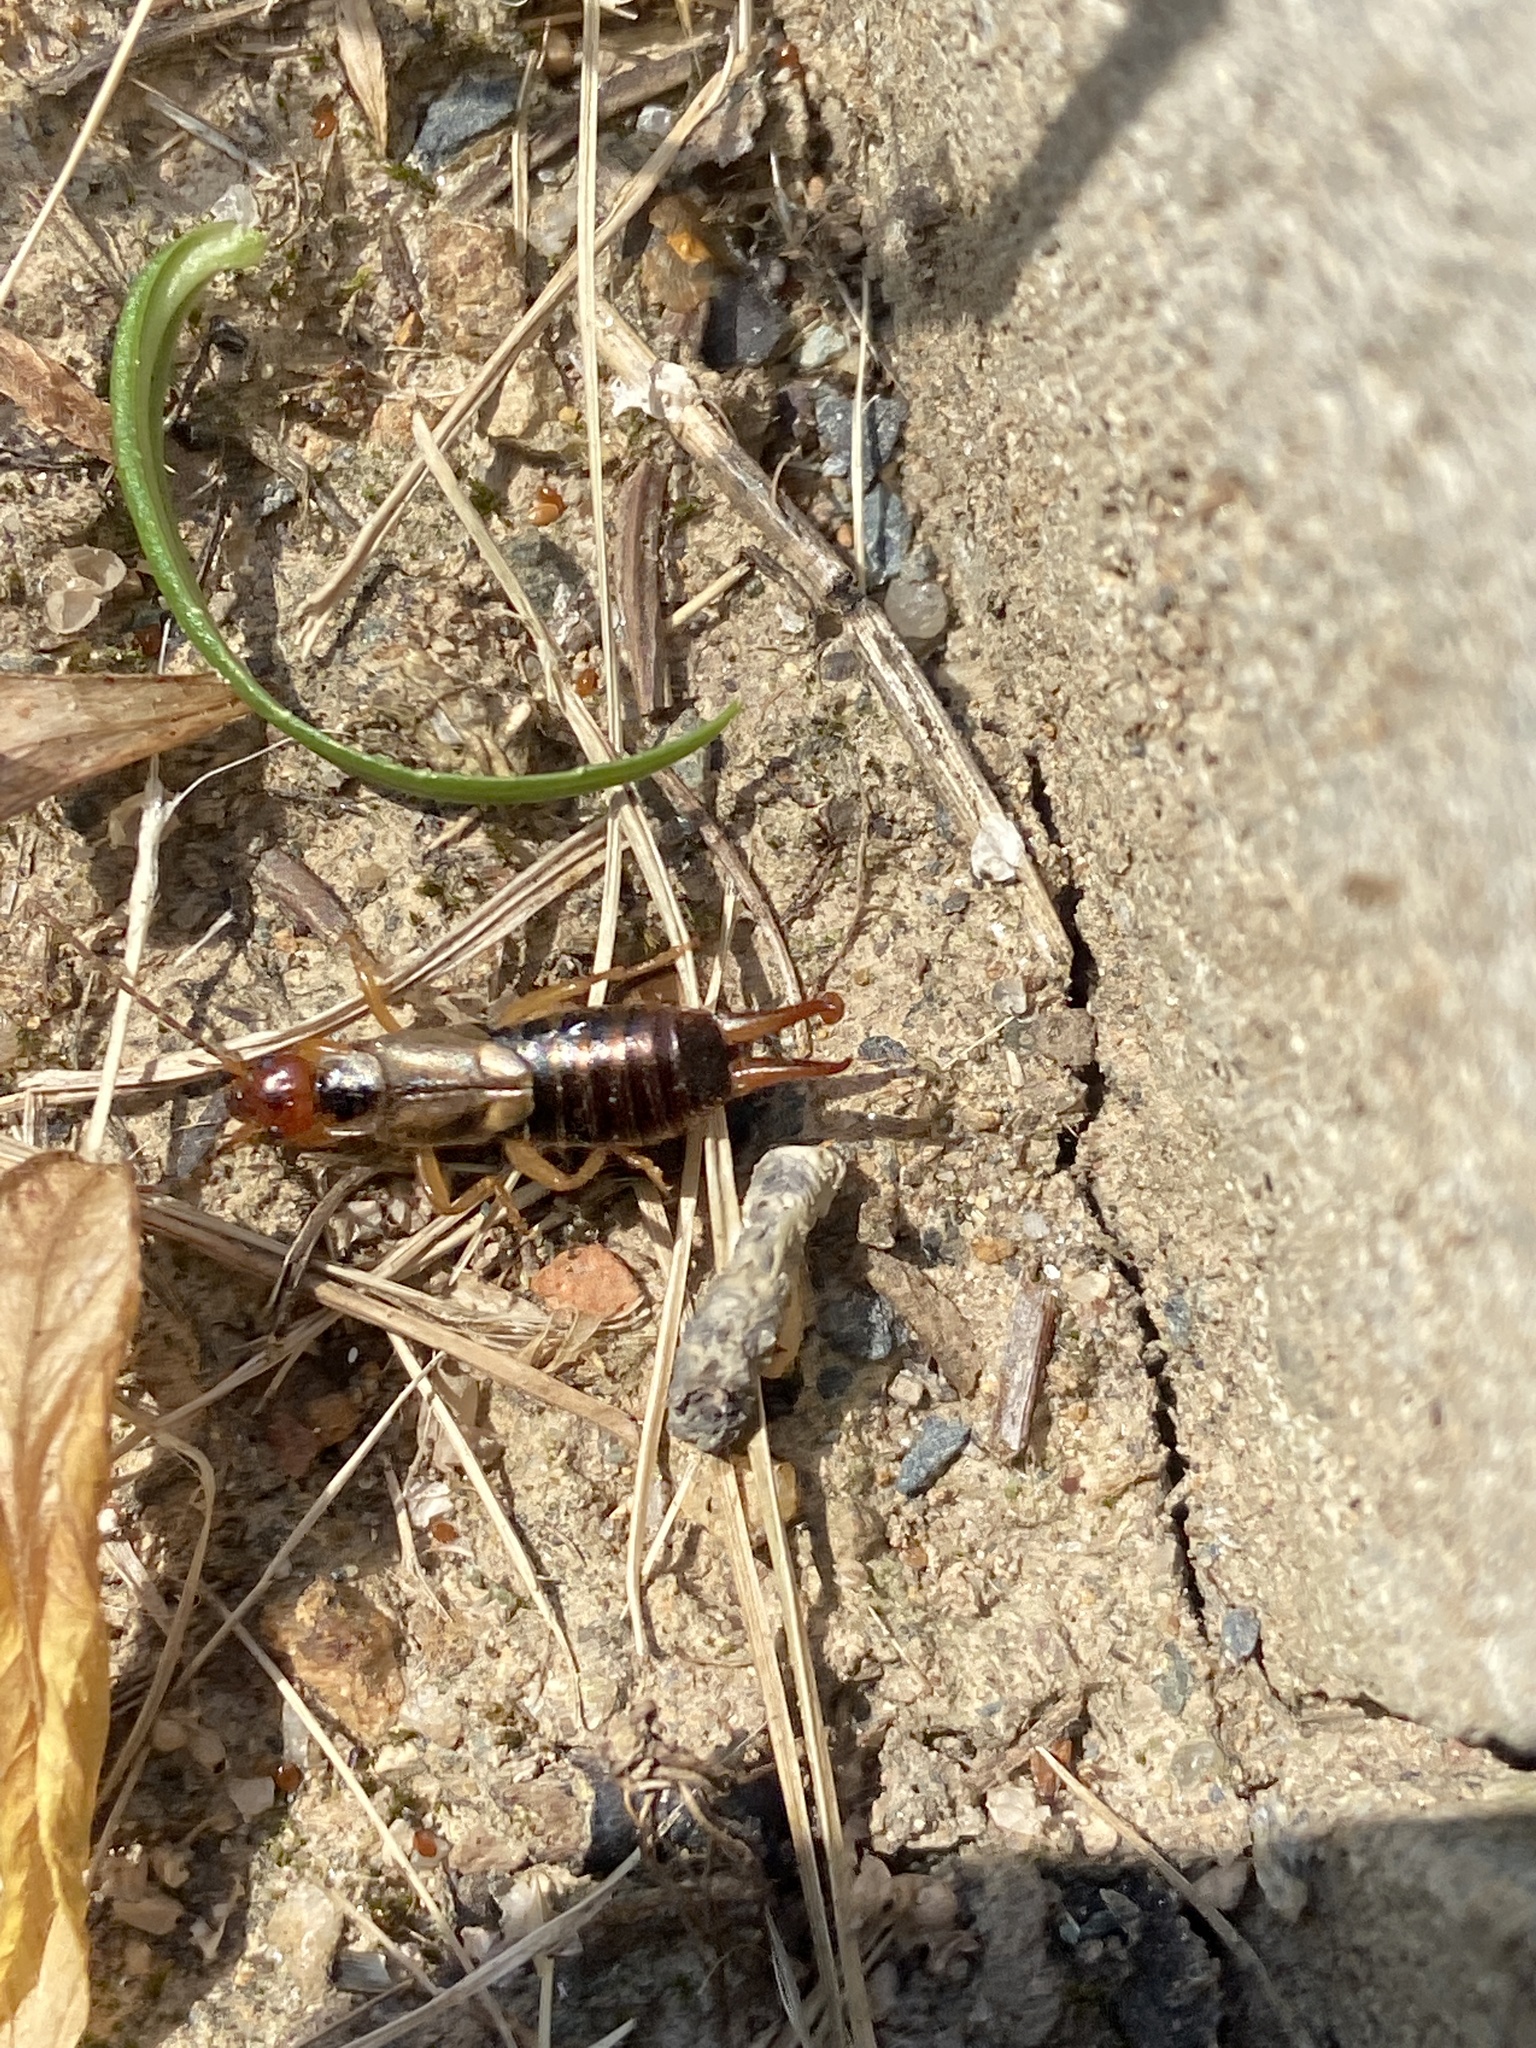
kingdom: Animalia
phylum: Arthropoda
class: Insecta
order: Dermaptera
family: Forficulidae
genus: Forficula
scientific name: Forficula
